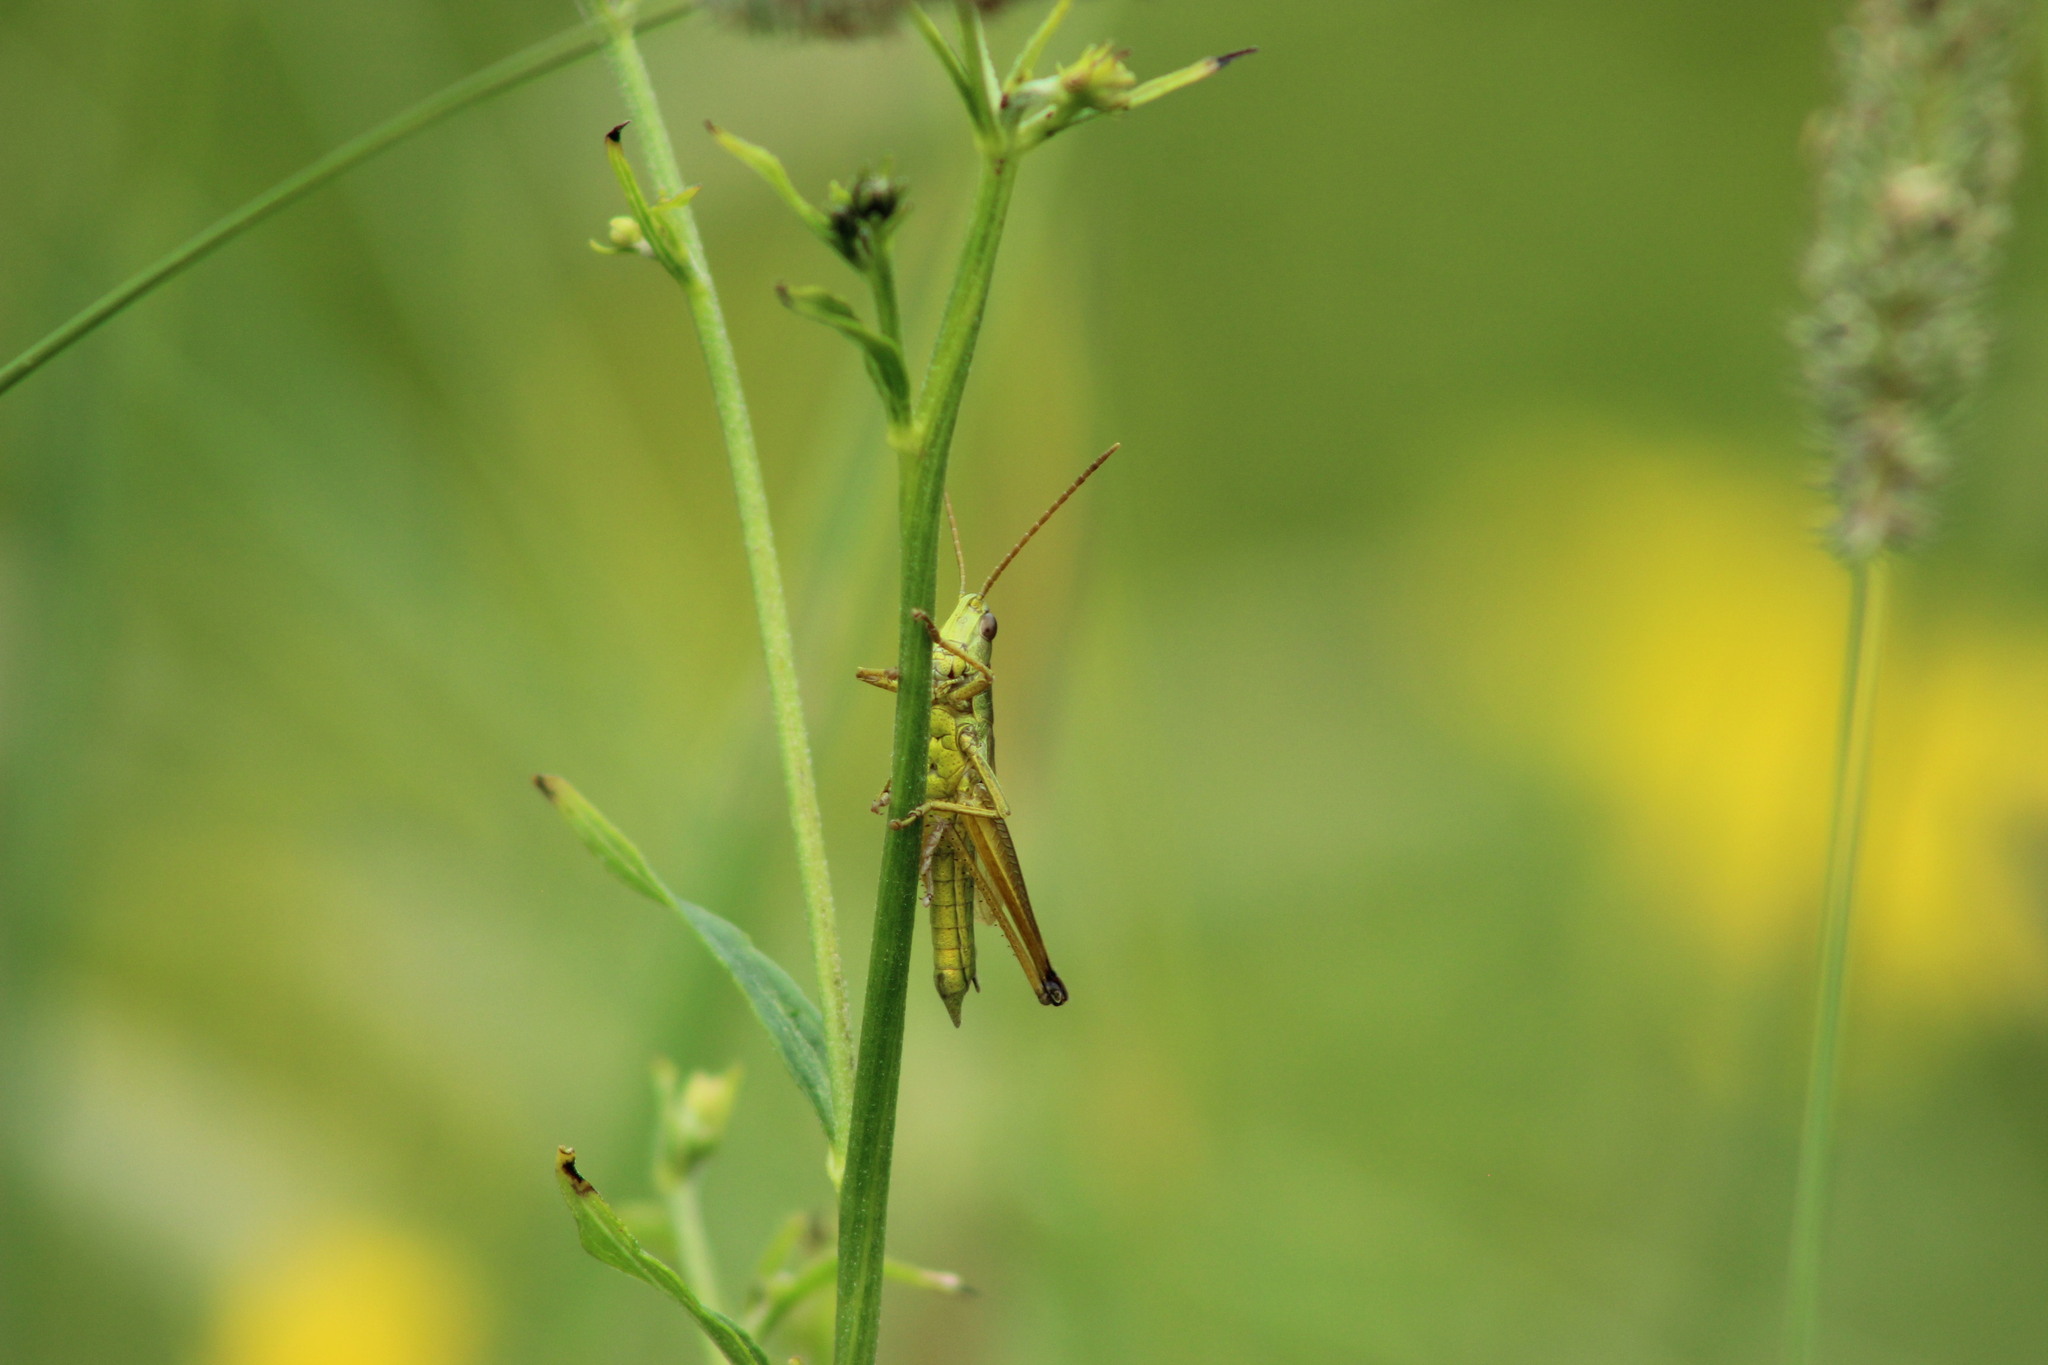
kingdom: Animalia
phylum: Arthropoda
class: Insecta
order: Orthoptera
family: Acrididae
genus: Chrysochraon
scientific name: Chrysochraon dispar
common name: Large gold grasshopper
